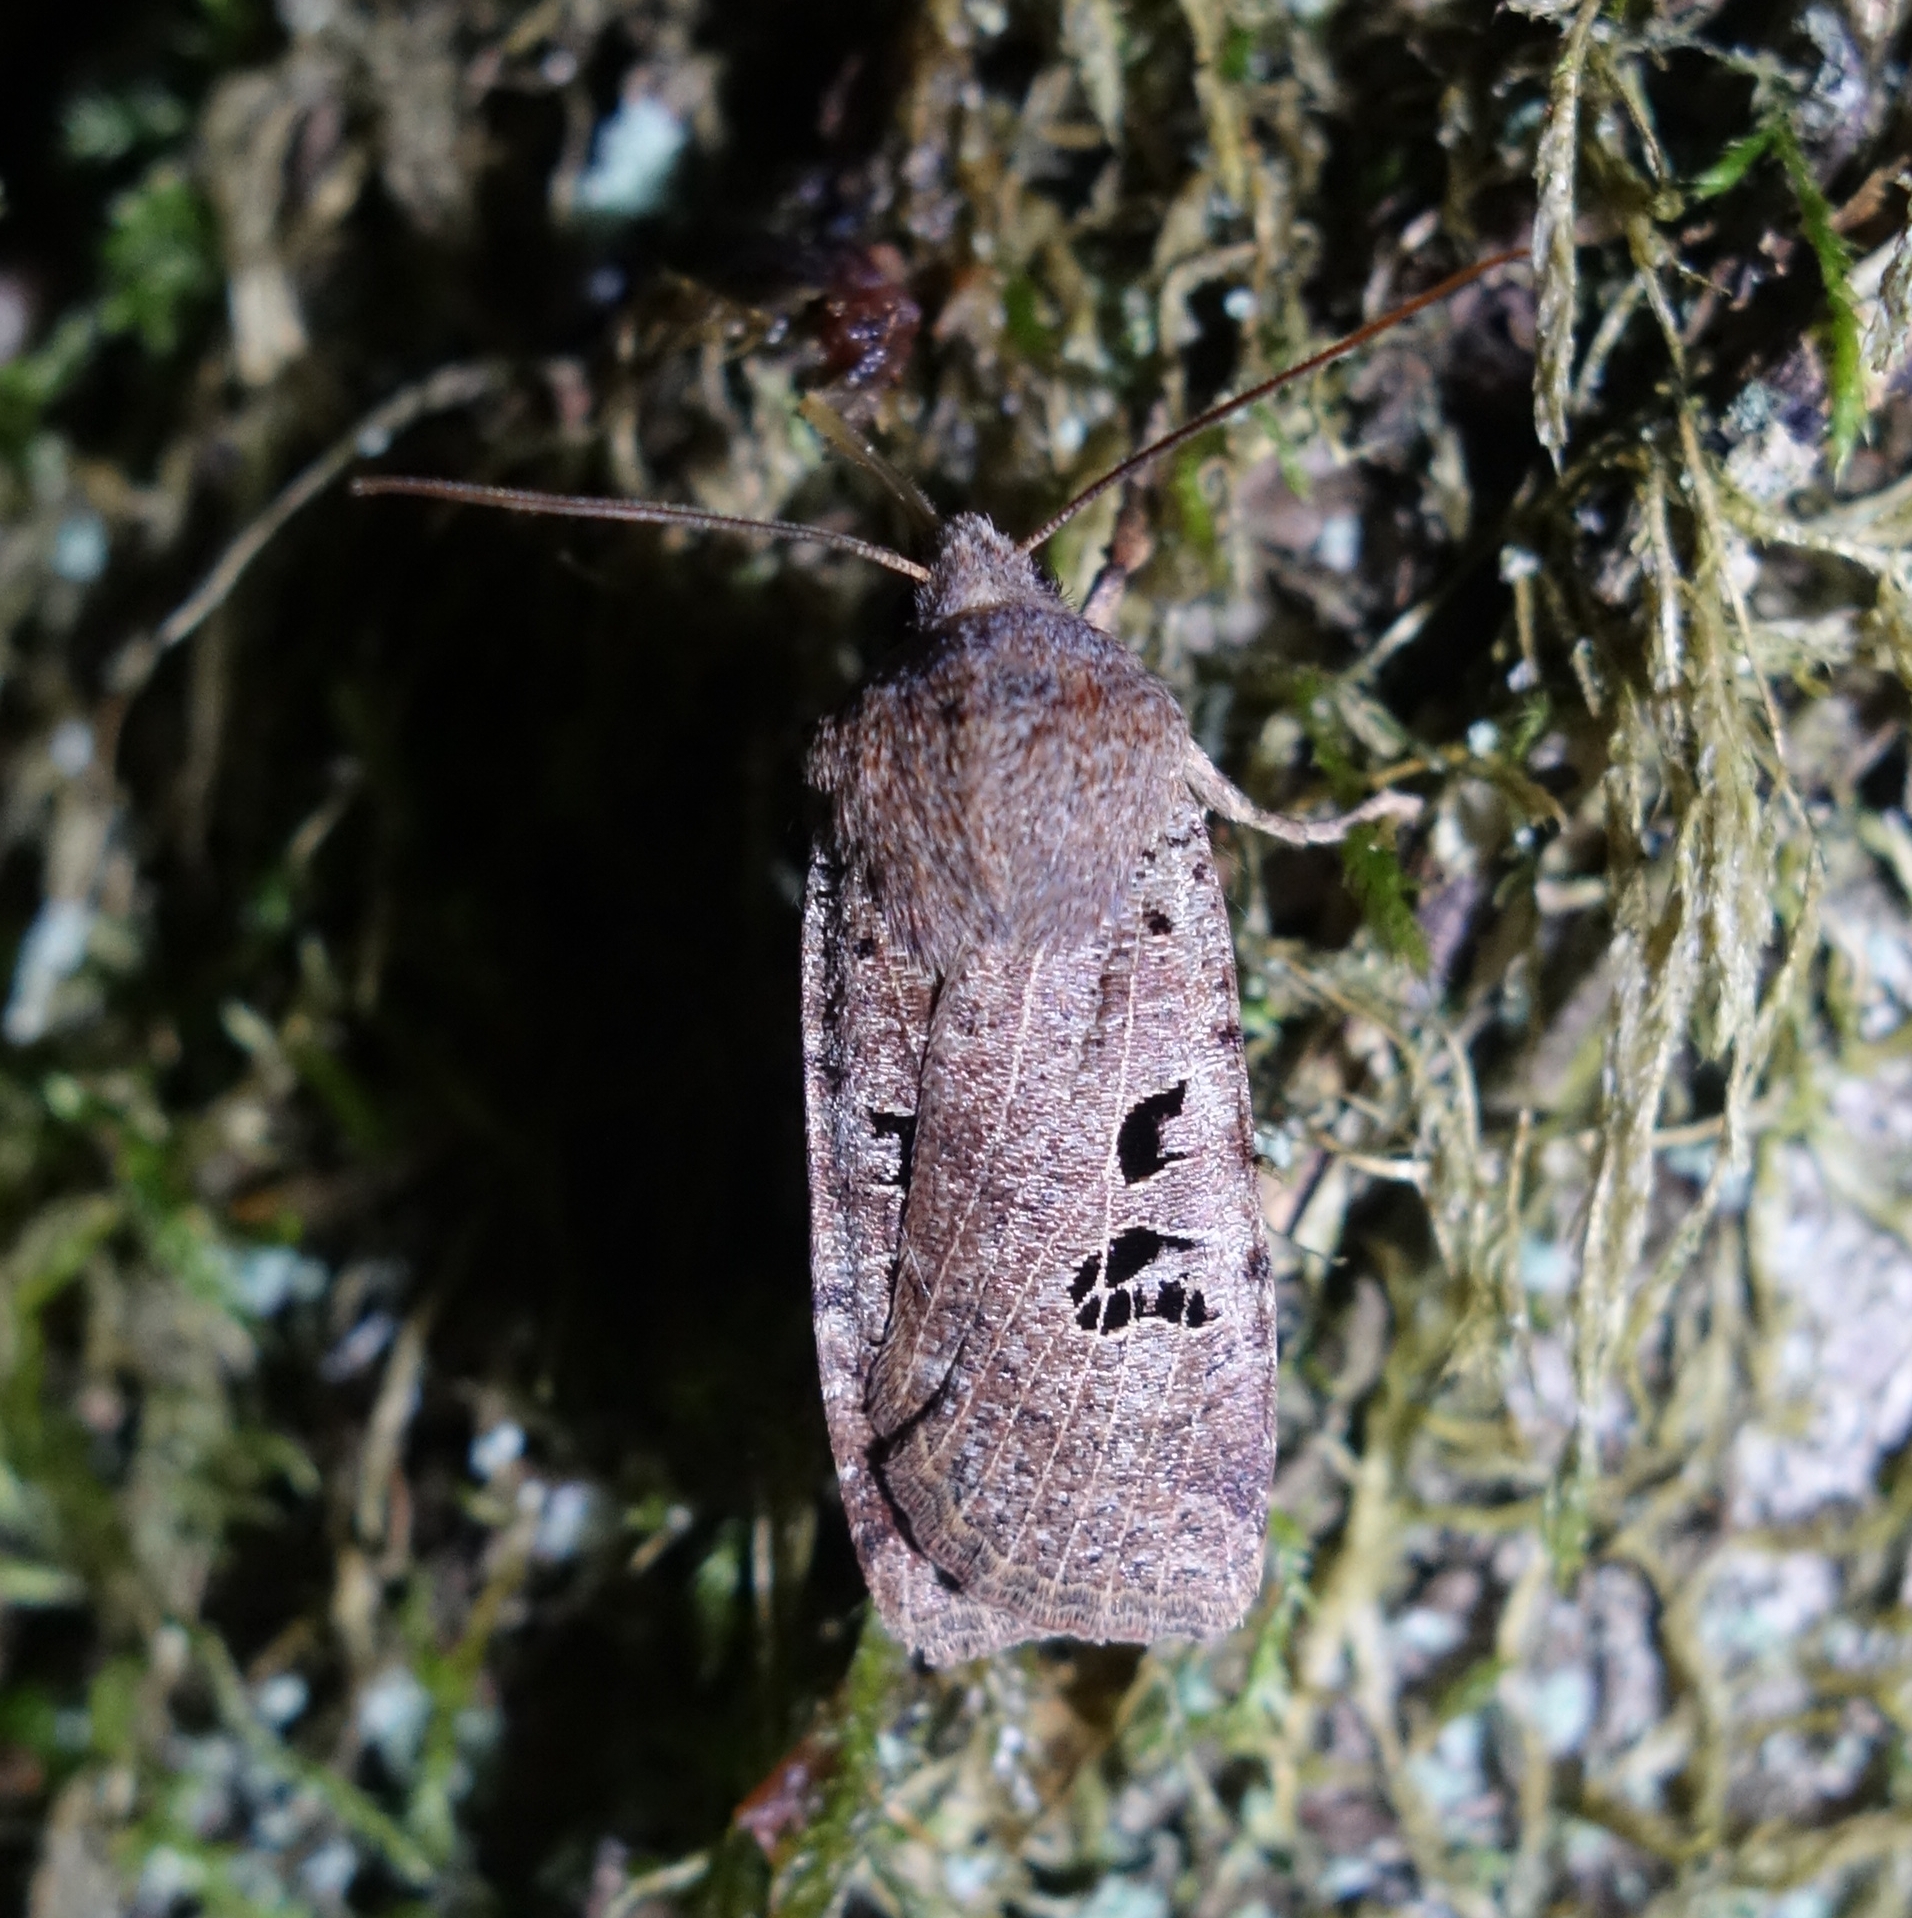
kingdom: Animalia
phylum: Arthropoda
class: Insecta
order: Lepidoptera
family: Noctuidae
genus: Conistra
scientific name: Conistra rubiginosa
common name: Black-spotted chestnut
